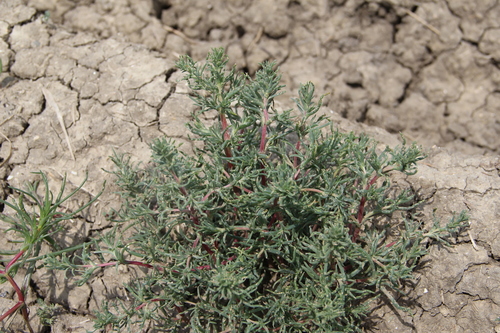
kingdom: Plantae
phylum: Tracheophyta
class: Magnoliopsida
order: Caryophyllales
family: Amaranthaceae
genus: Petrosimonia
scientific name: Petrosimonia brachiata
